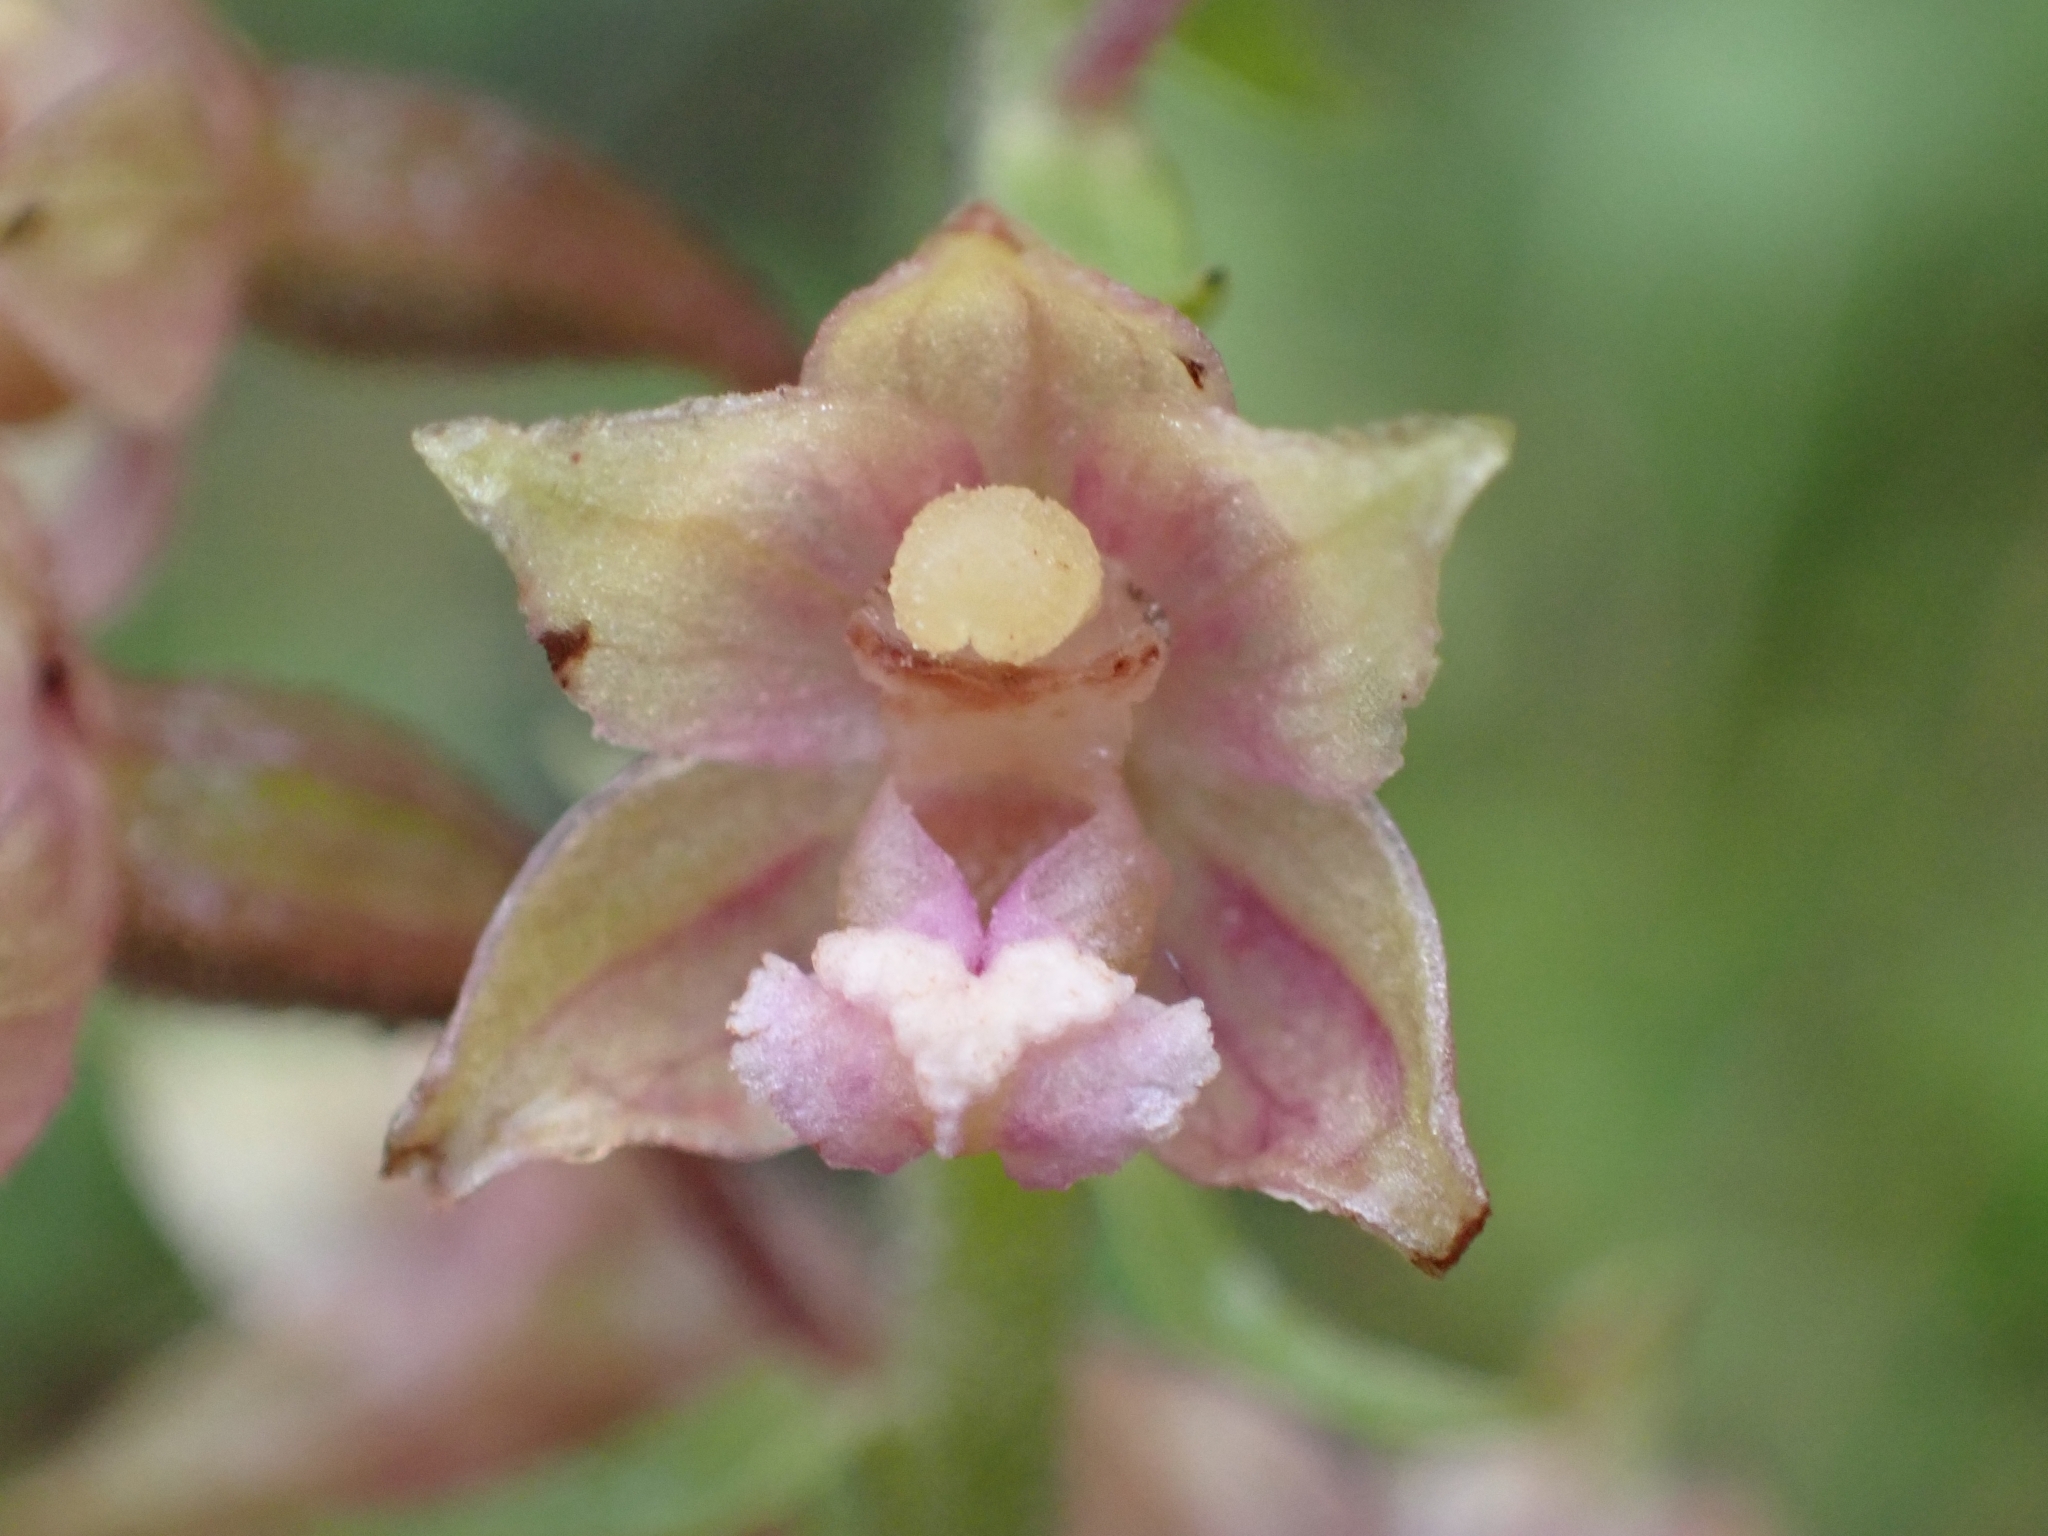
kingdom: Plantae
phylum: Tracheophyta
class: Liliopsida
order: Asparagales
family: Orchidaceae
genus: Epipactis
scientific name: Epipactis atrorubens
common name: Dark-red helleborine
